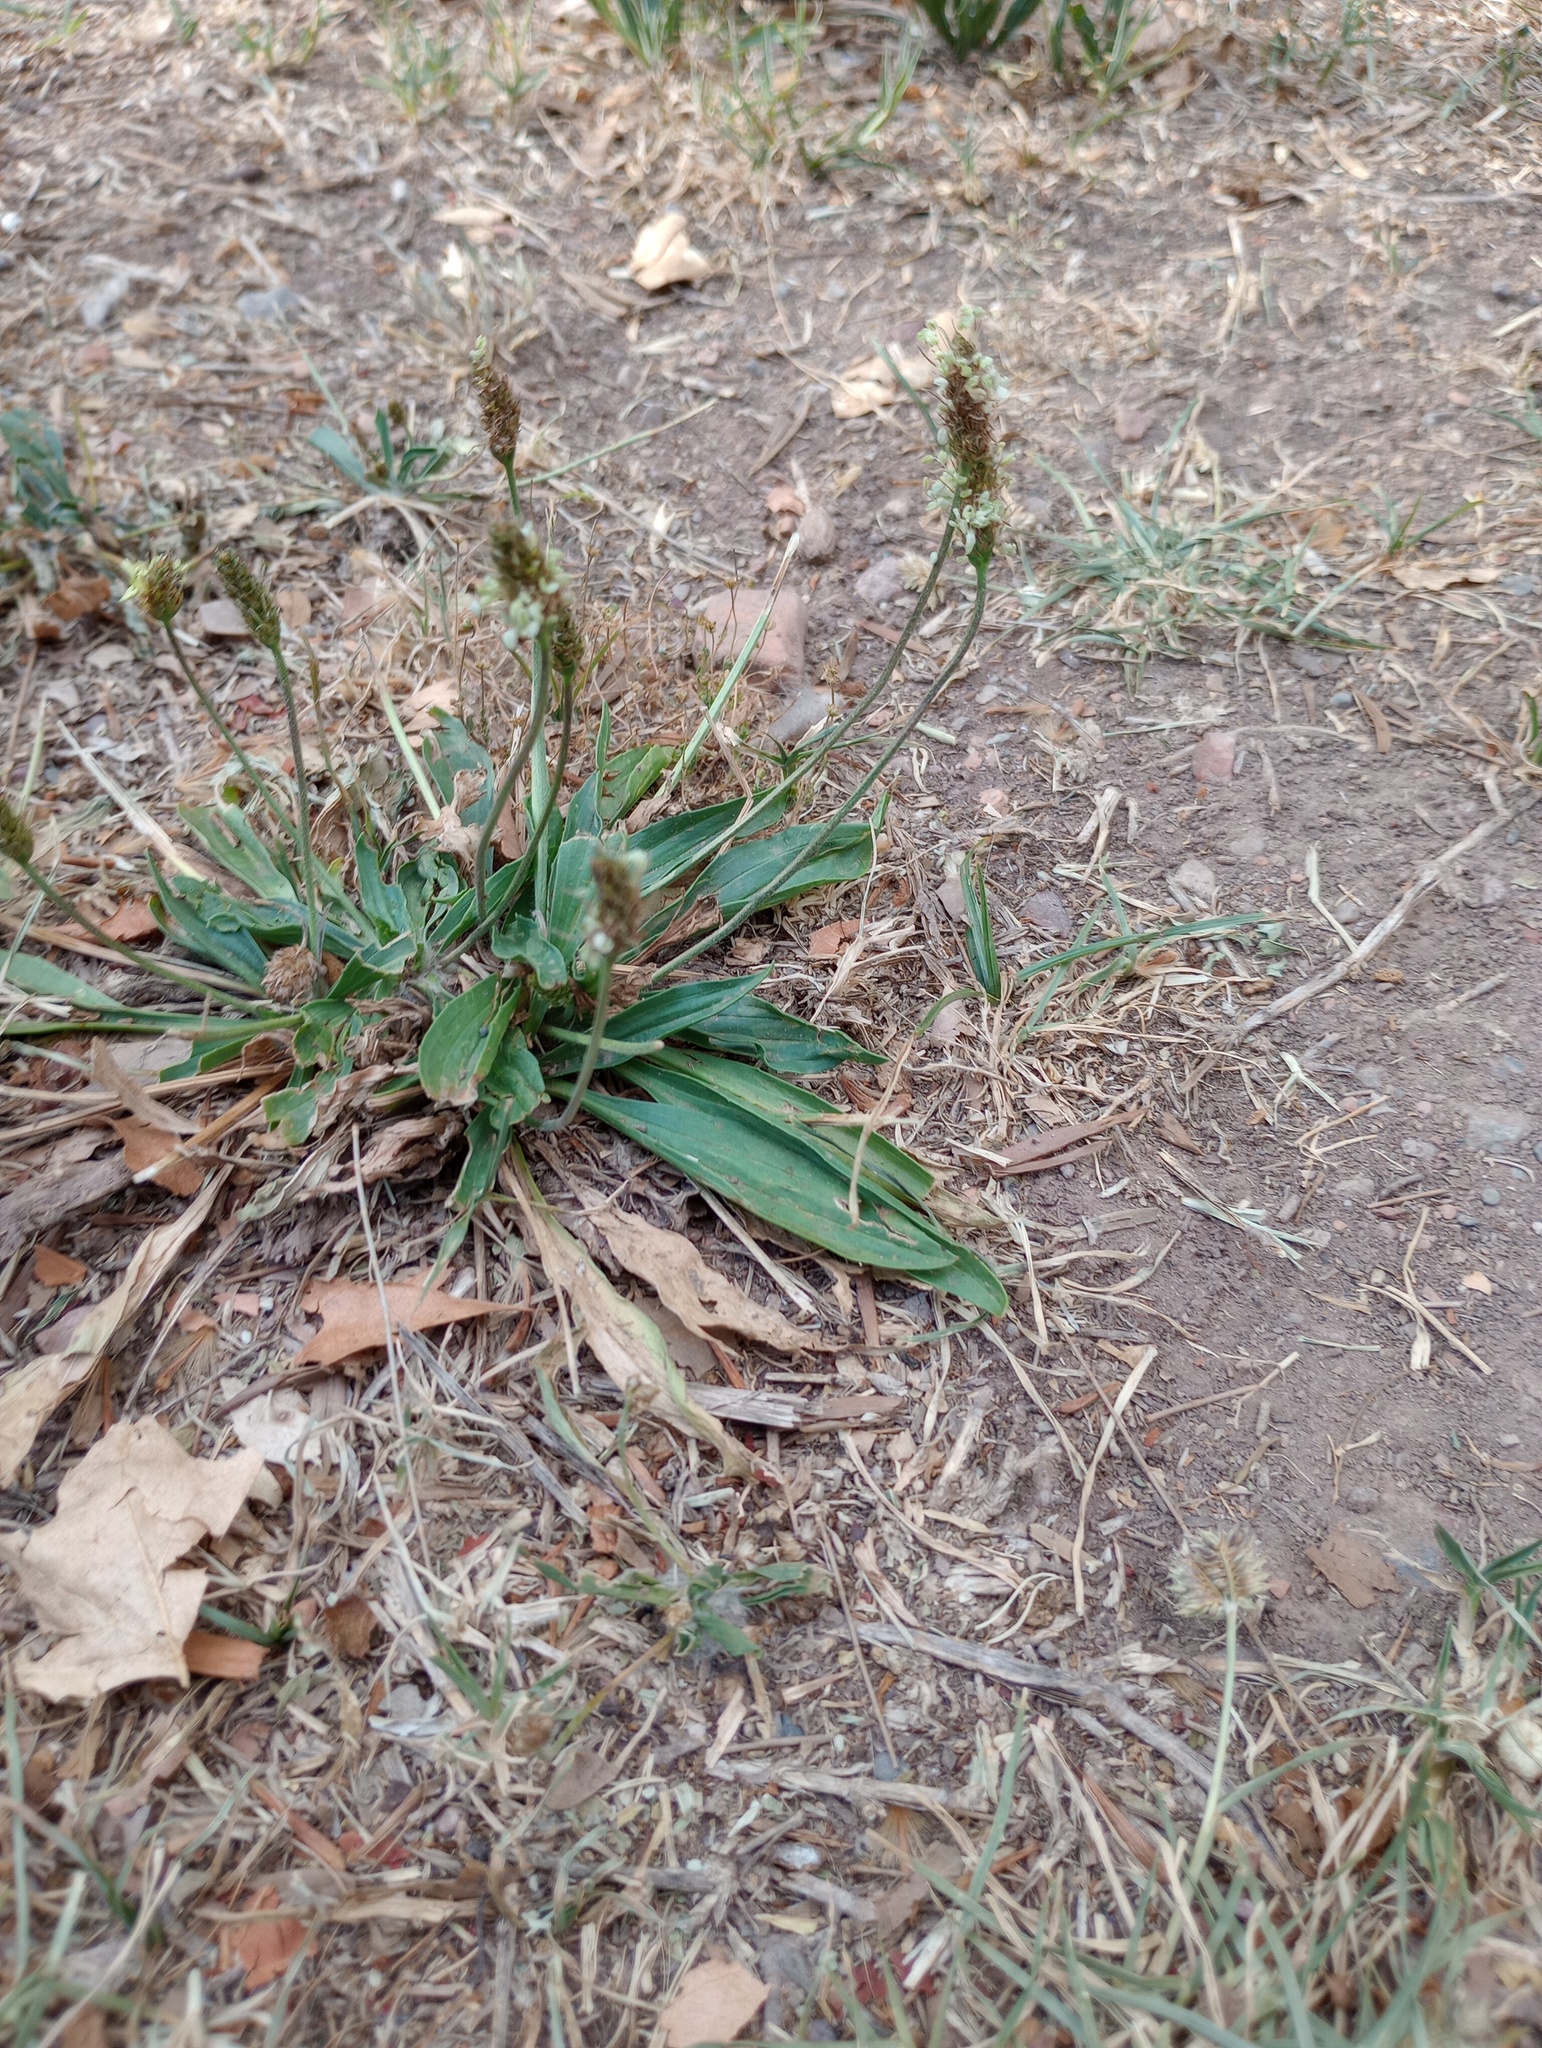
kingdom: Plantae
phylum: Tracheophyta
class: Magnoliopsida
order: Lamiales
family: Plantaginaceae
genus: Plantago
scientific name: Plantago lanceolata
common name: Ribwort plantain
